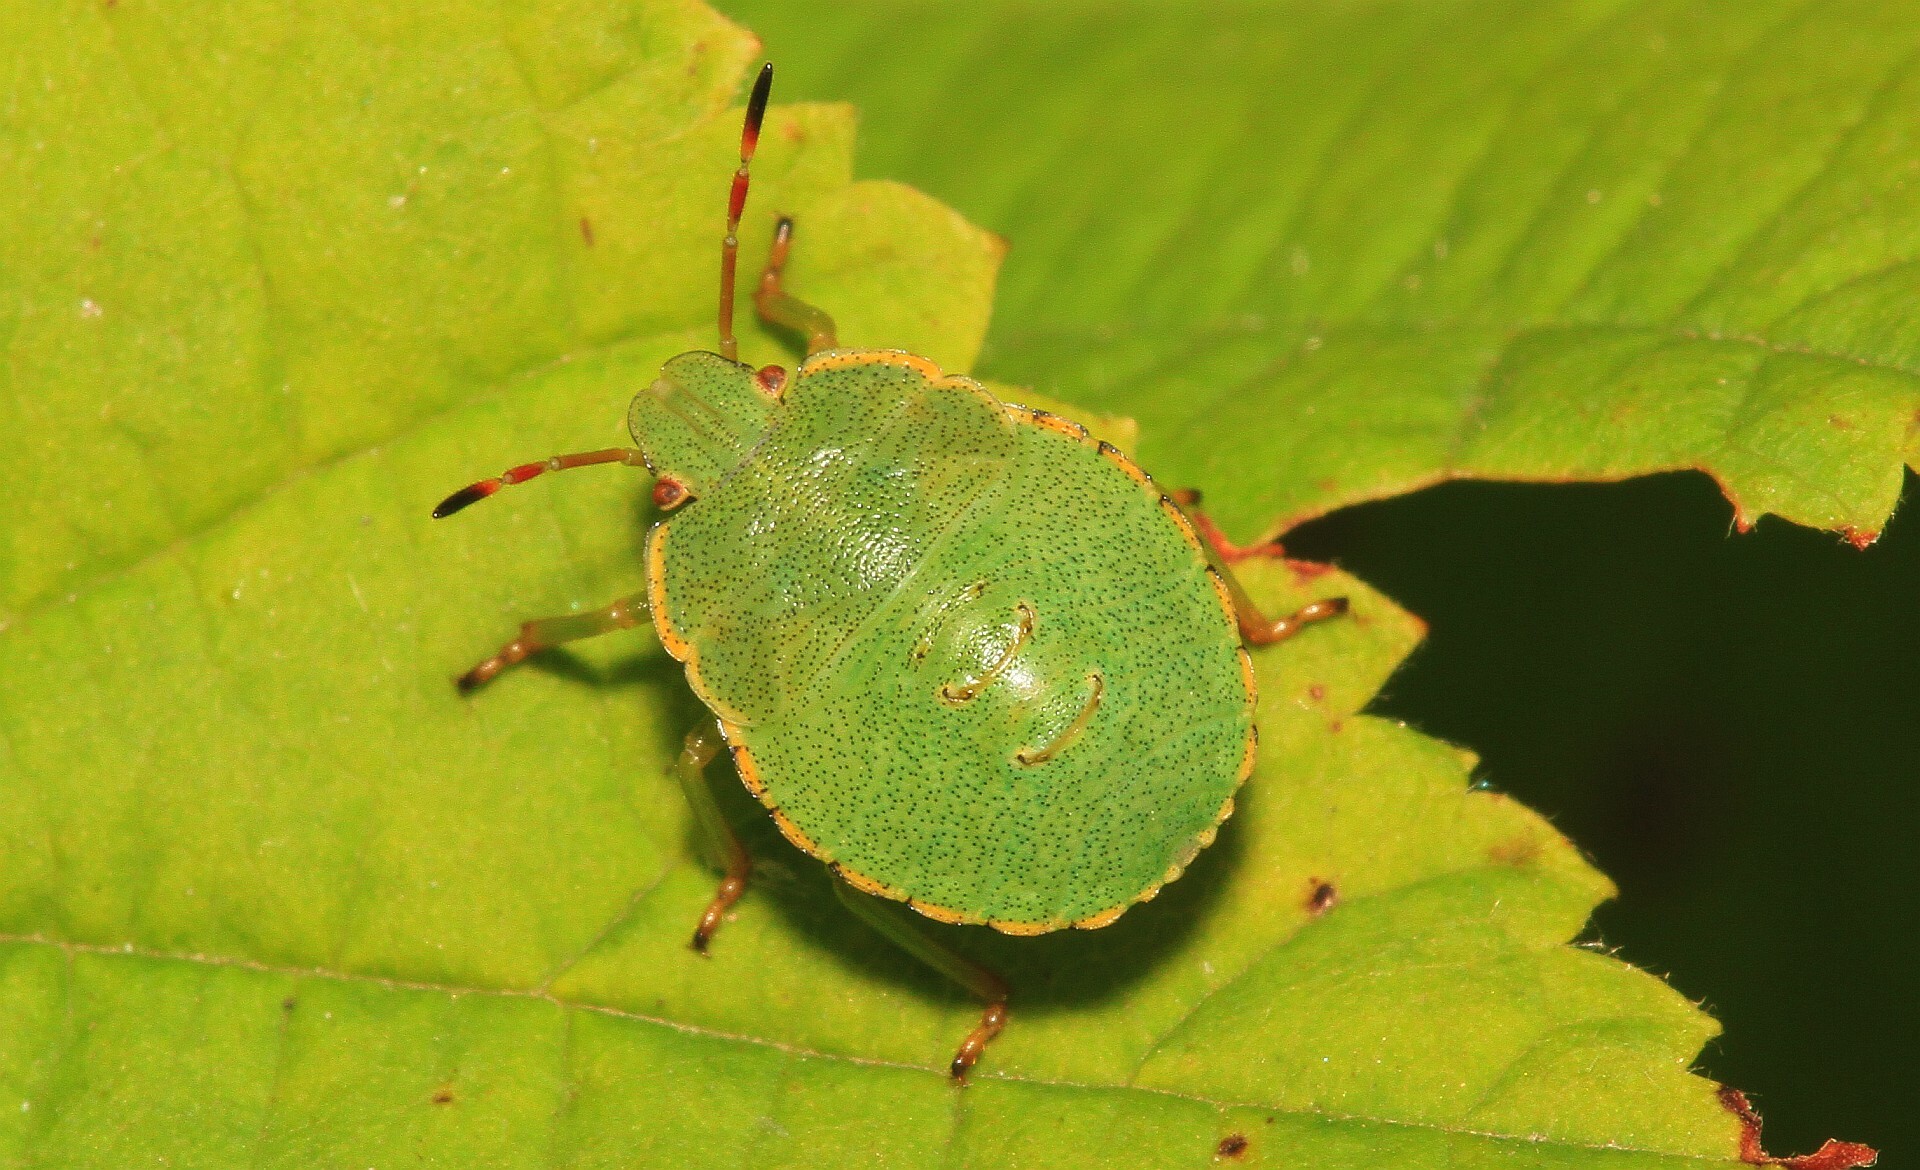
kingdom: Animalia
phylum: Arthropoda
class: Insecta
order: Hemiptera
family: Pentatomidae
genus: Palomena
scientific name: Palomena prasina
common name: Green shieldbug
